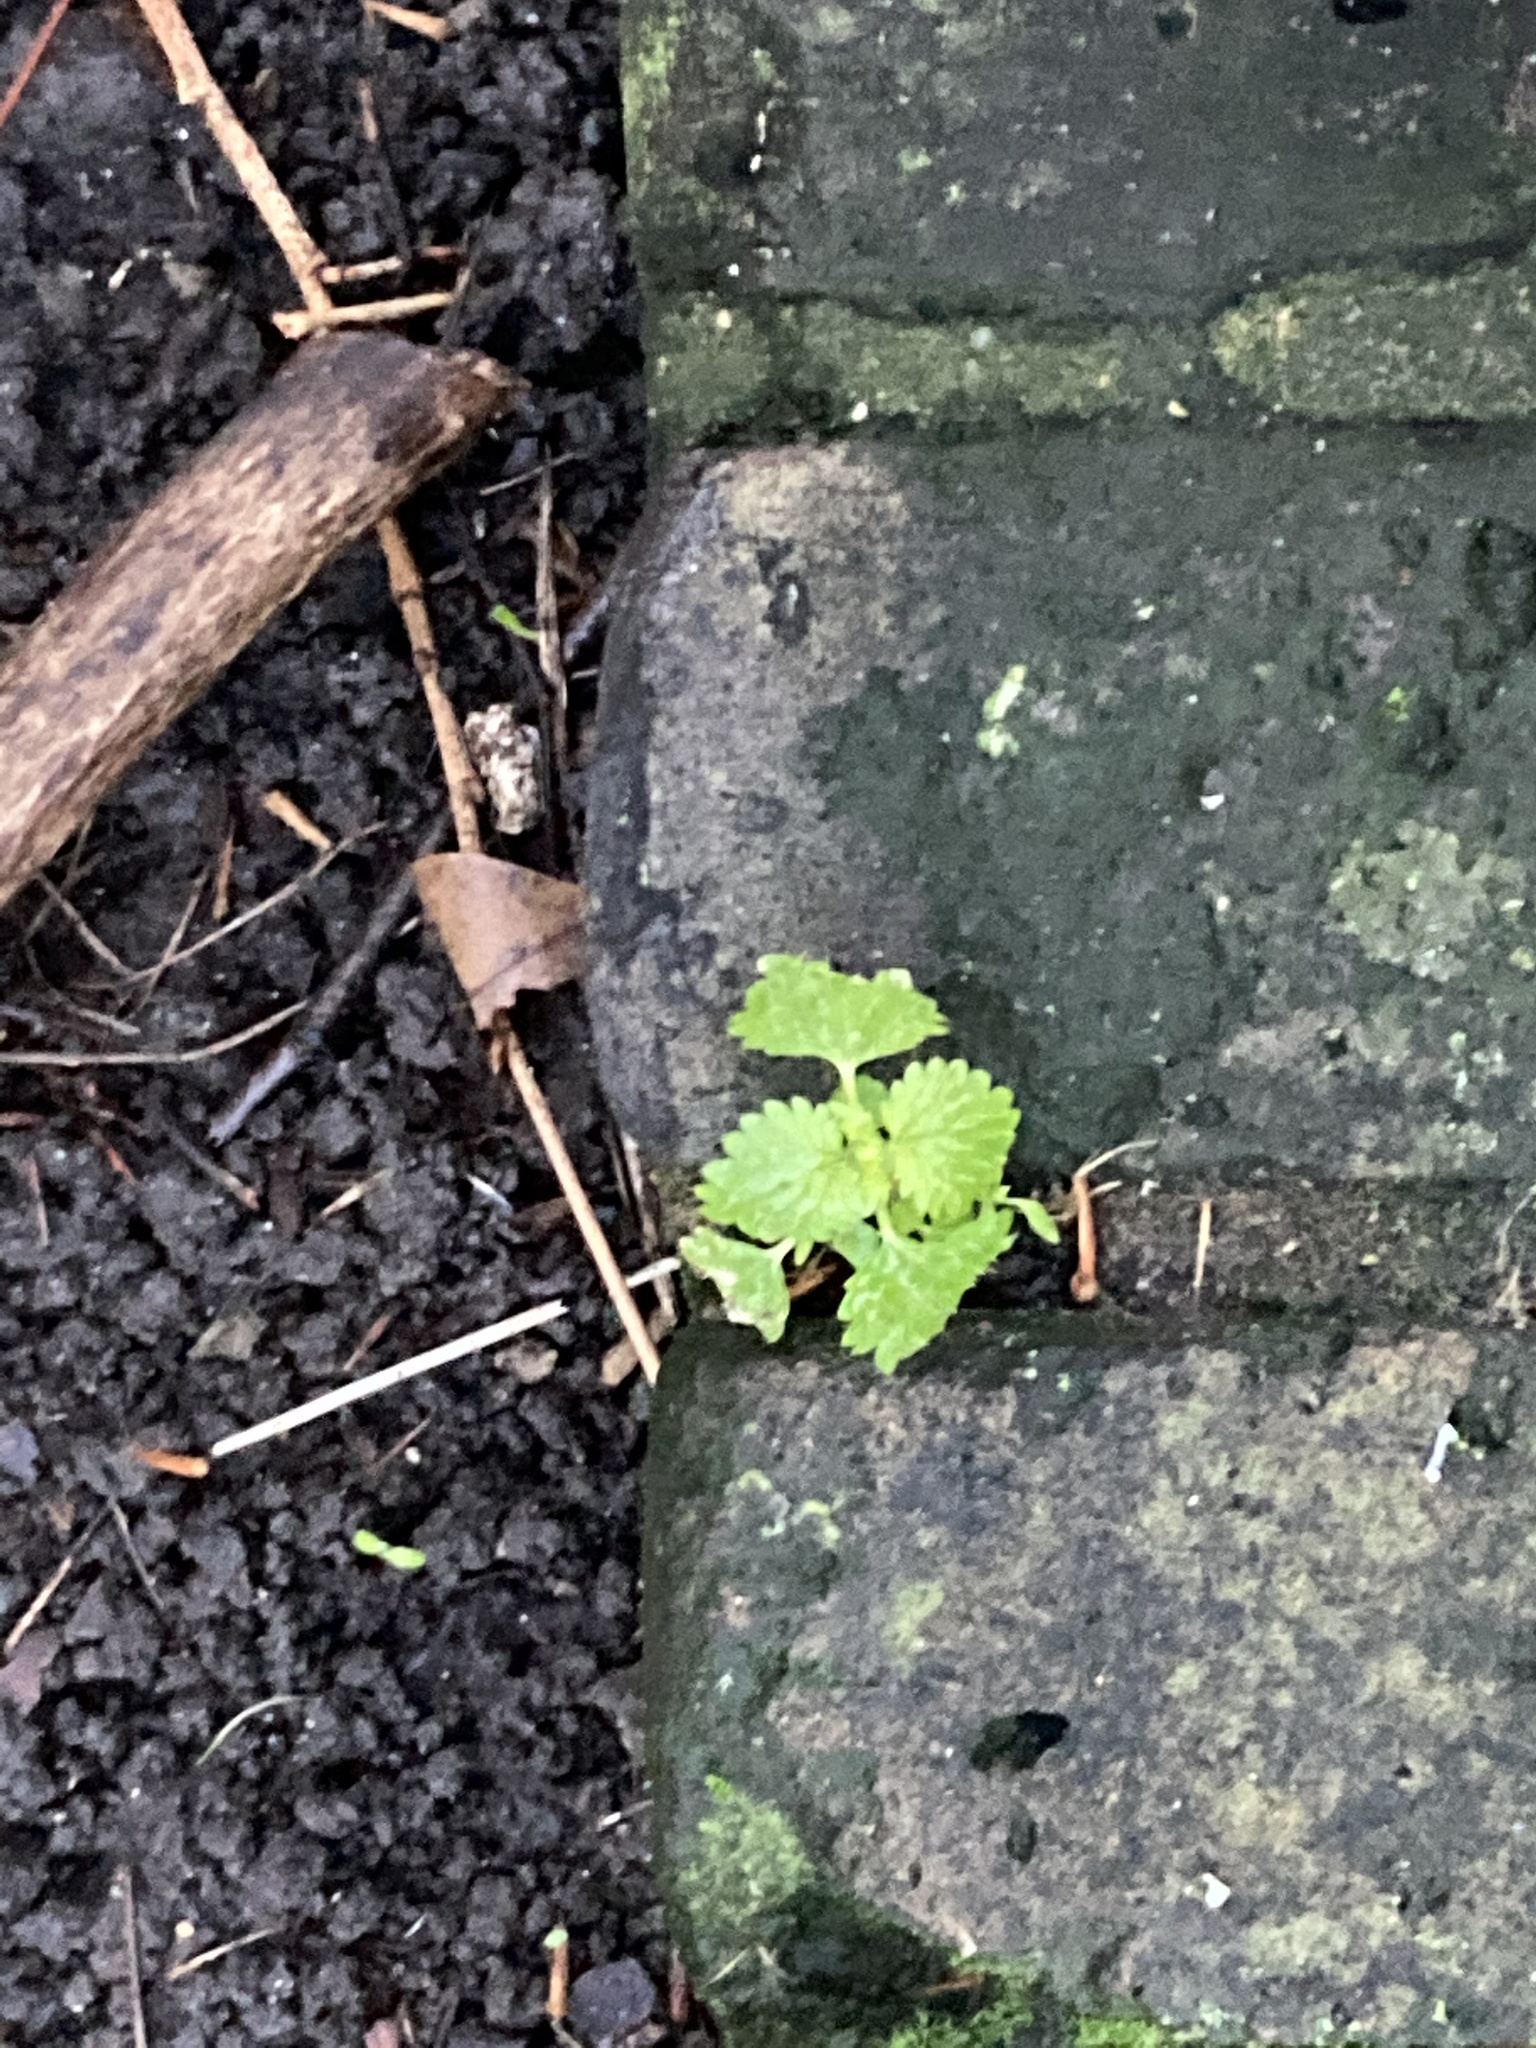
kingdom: Plantae
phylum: Tracheophyta
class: Magnoliopsida
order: Rosales
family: Urticaceae
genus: Urtica
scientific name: Urtica dioica
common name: Common nettle
